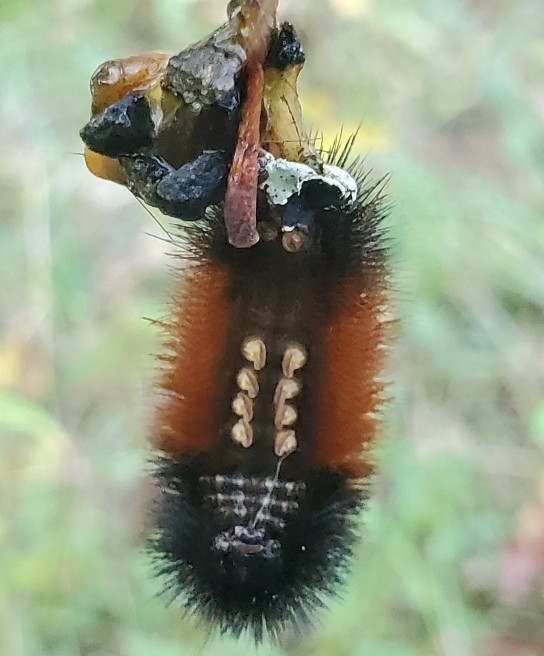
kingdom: Animalia
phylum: Arthropoda
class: Insecta
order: Lepidoptera
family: Erebidae
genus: Pyrrharctia
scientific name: Pyrrharctia isabella
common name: Isabella tiger moth
